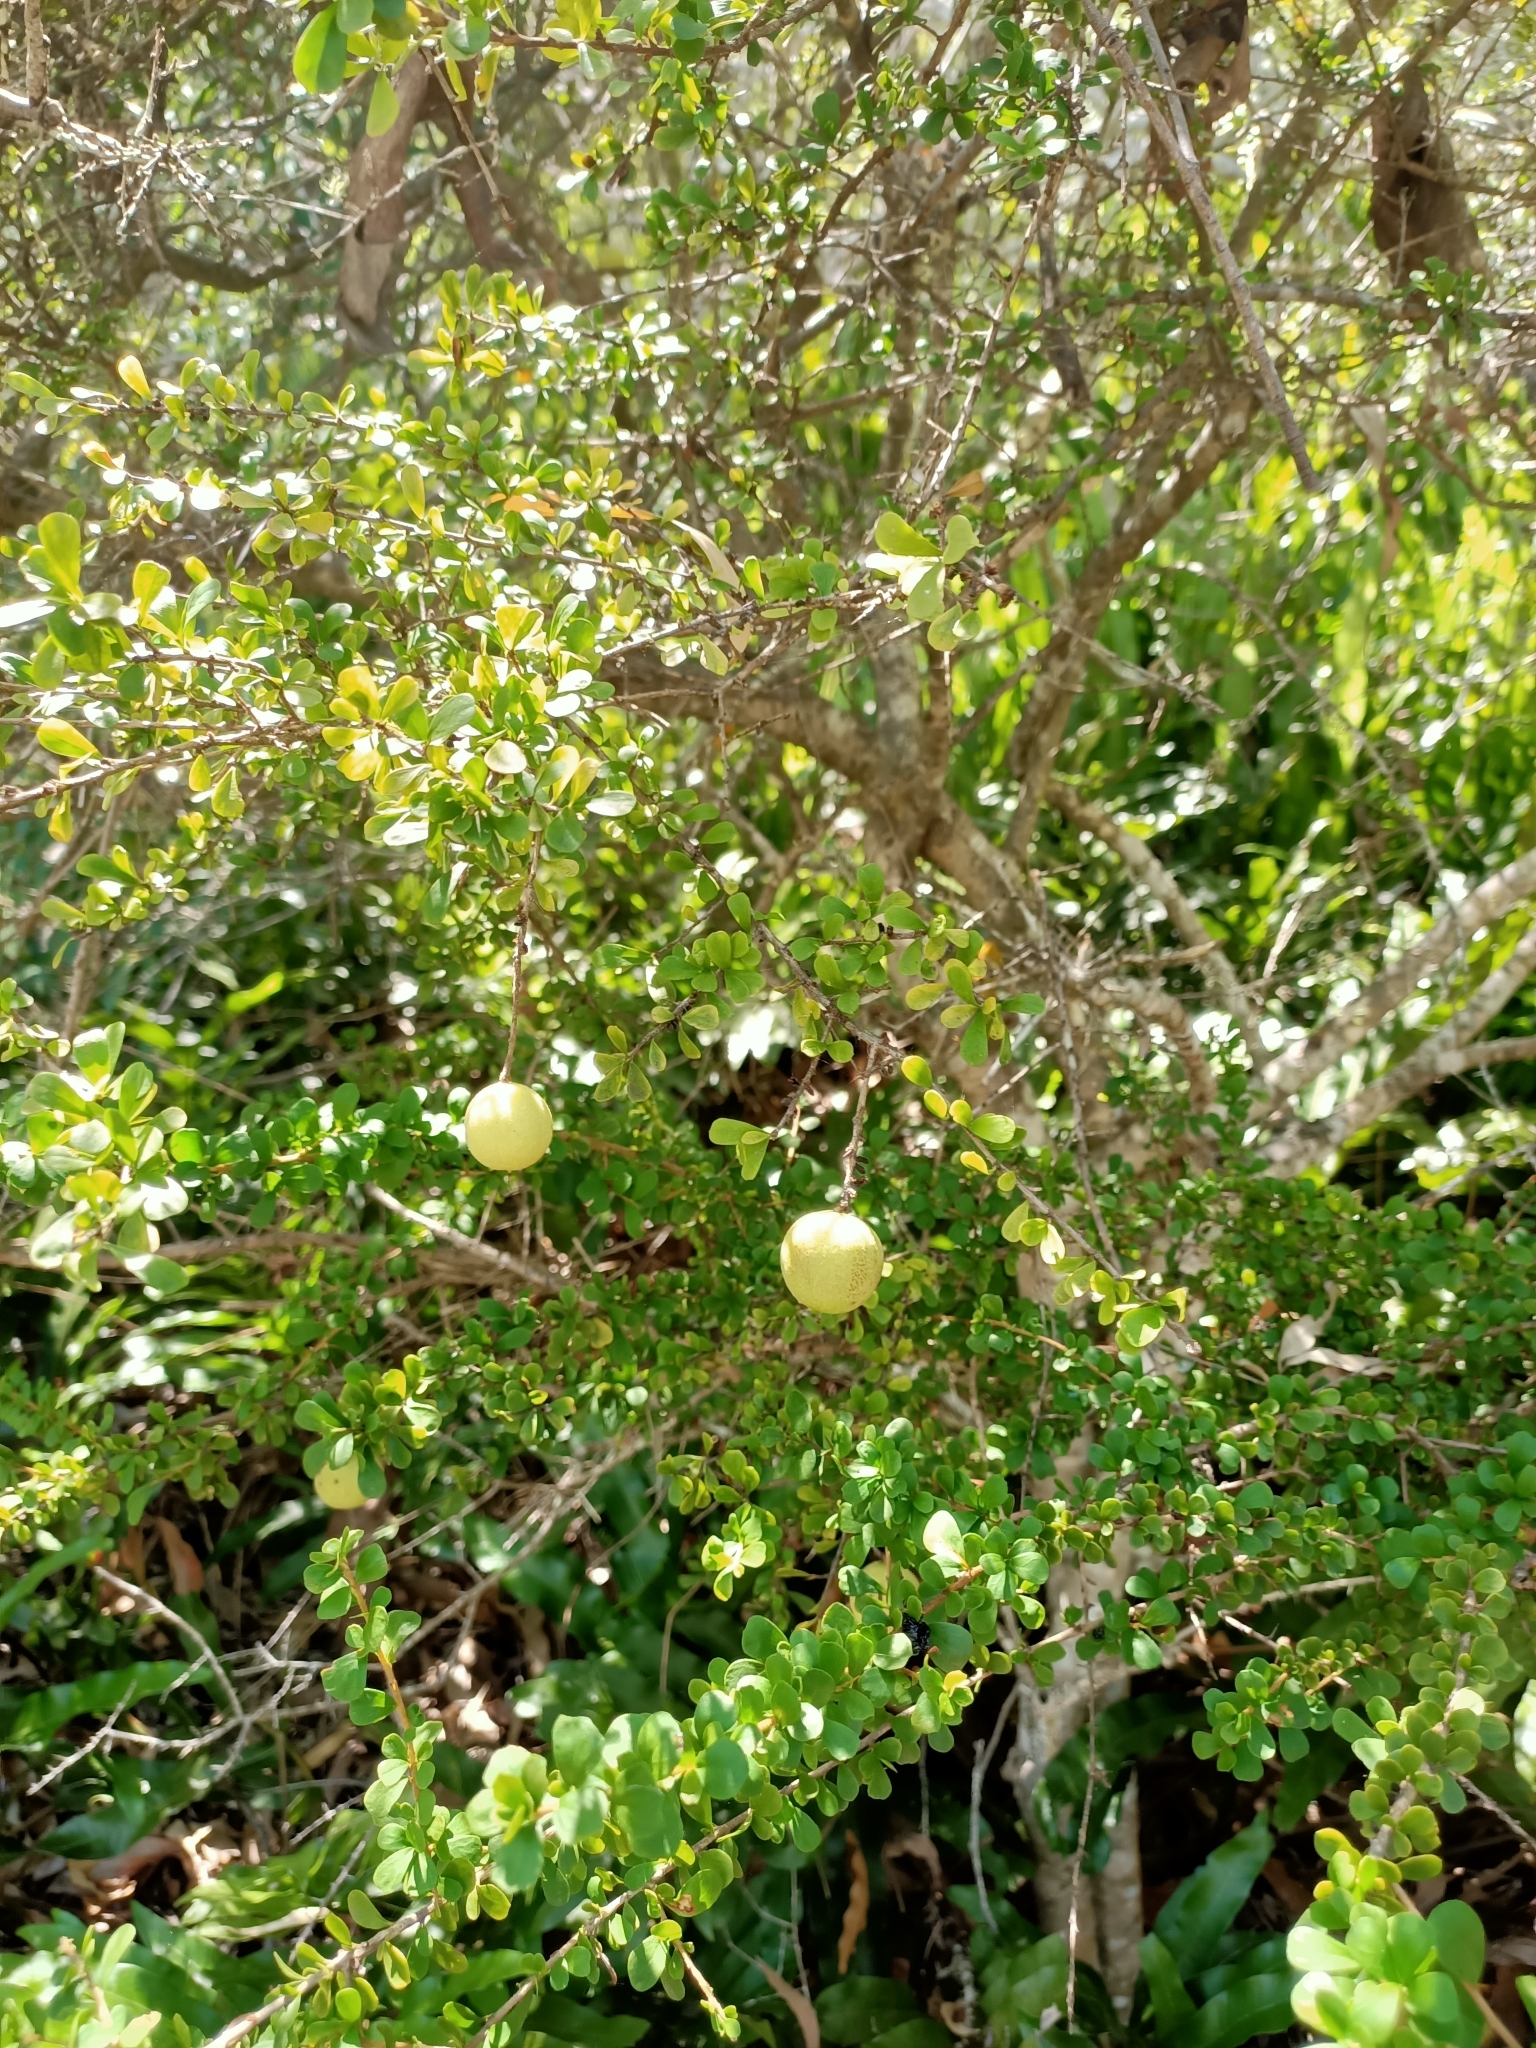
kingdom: Plantae
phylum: Tracheophyta
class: Magnoliopsida
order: Apiales
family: Pittosporaceae
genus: Pittosporum
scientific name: Pittosporum spinescens
